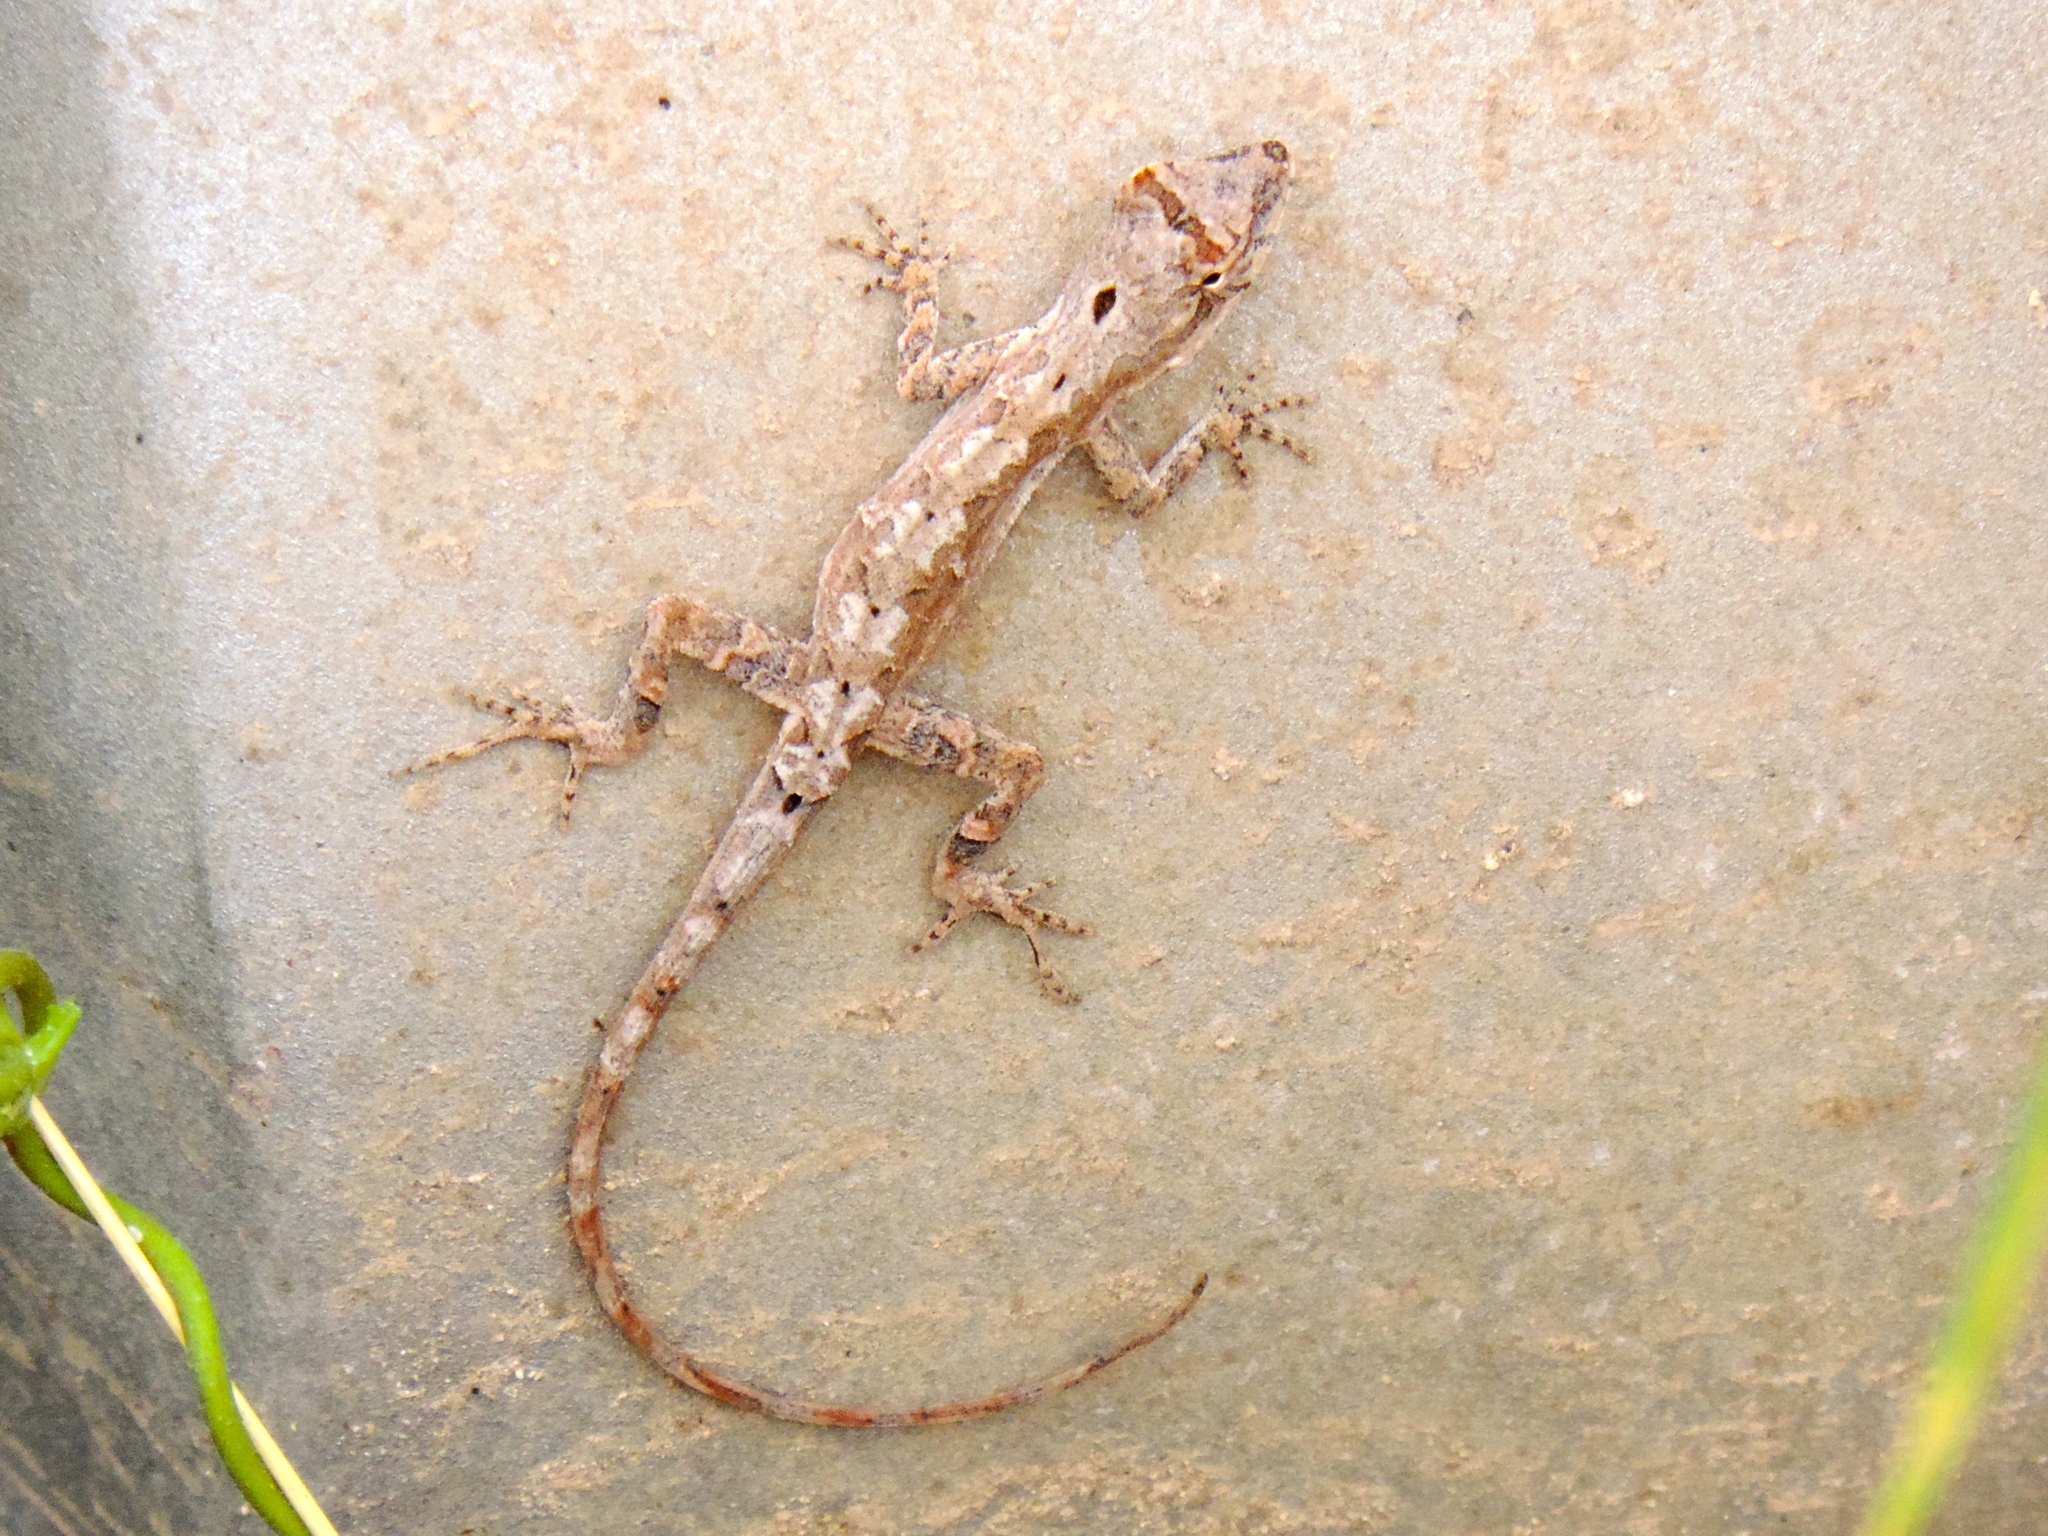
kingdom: Animalia
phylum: Chordata
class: Squamata
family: Dactyloidae
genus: Anolis
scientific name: Anolis nebulosus
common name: Clouded anole
